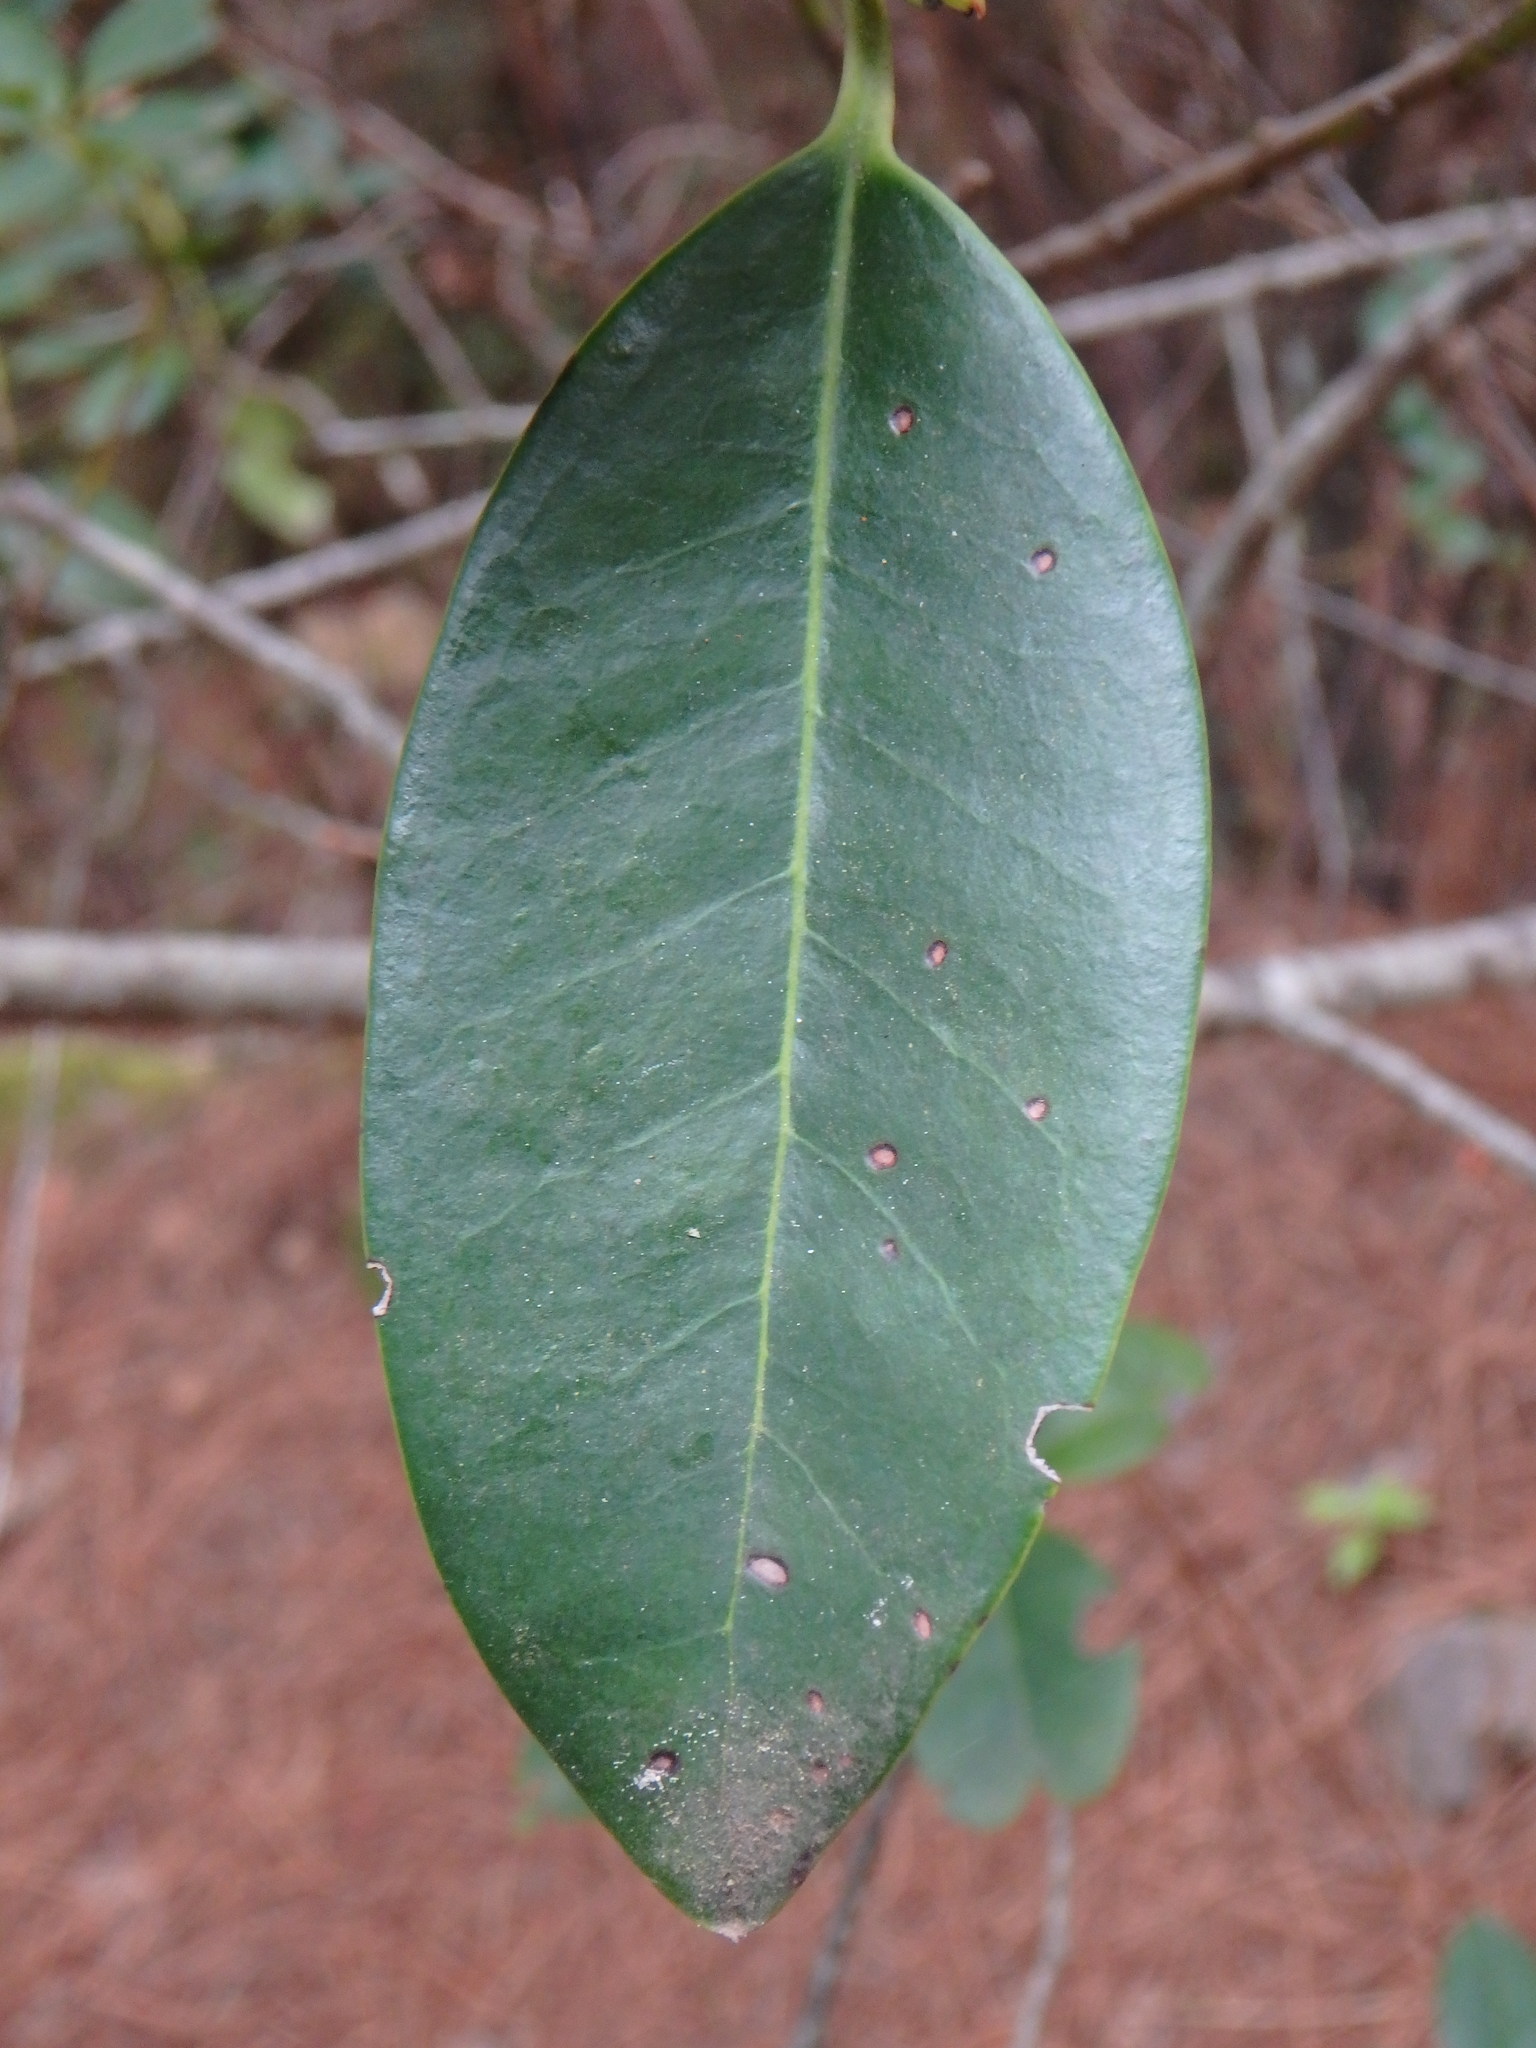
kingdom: Plantae
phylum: Tracheophyta
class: Magnoliopsida
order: Aquifoliales
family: Aquifoliaceae
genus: Ilex
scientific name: Ilex canariensis
